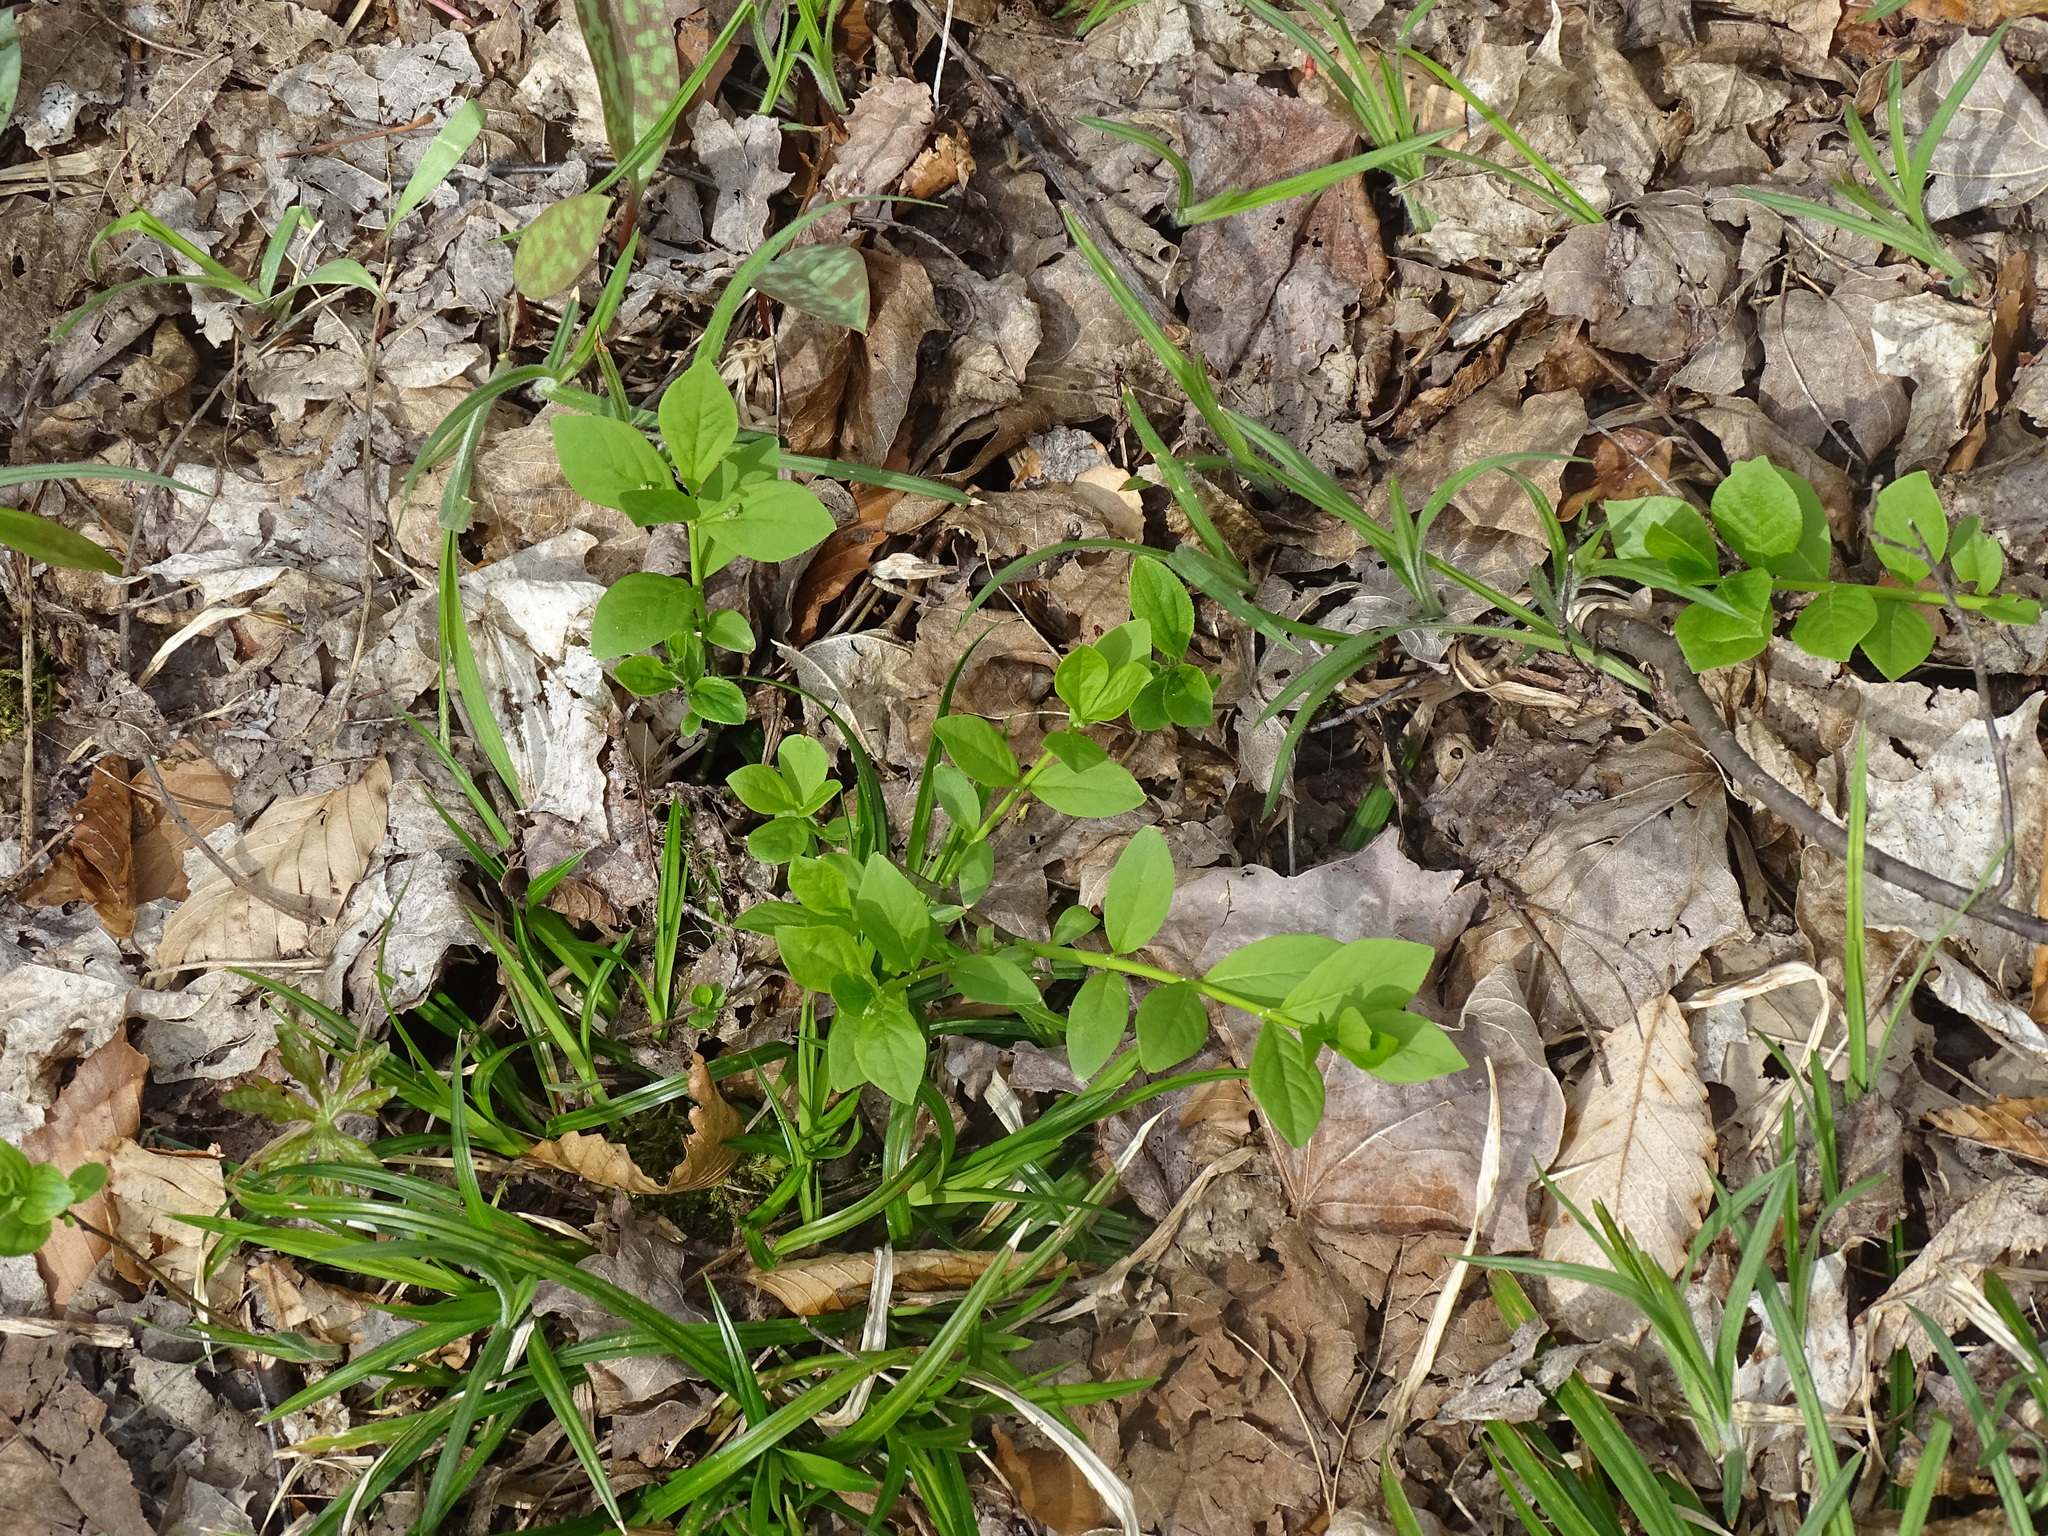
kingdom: Plantae
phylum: Tracheophyta
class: Magnoliopsida
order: Celastrales
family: Celastraceae
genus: Euonymus
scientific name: Euonymus obovatus
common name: Running strawberry-bush
